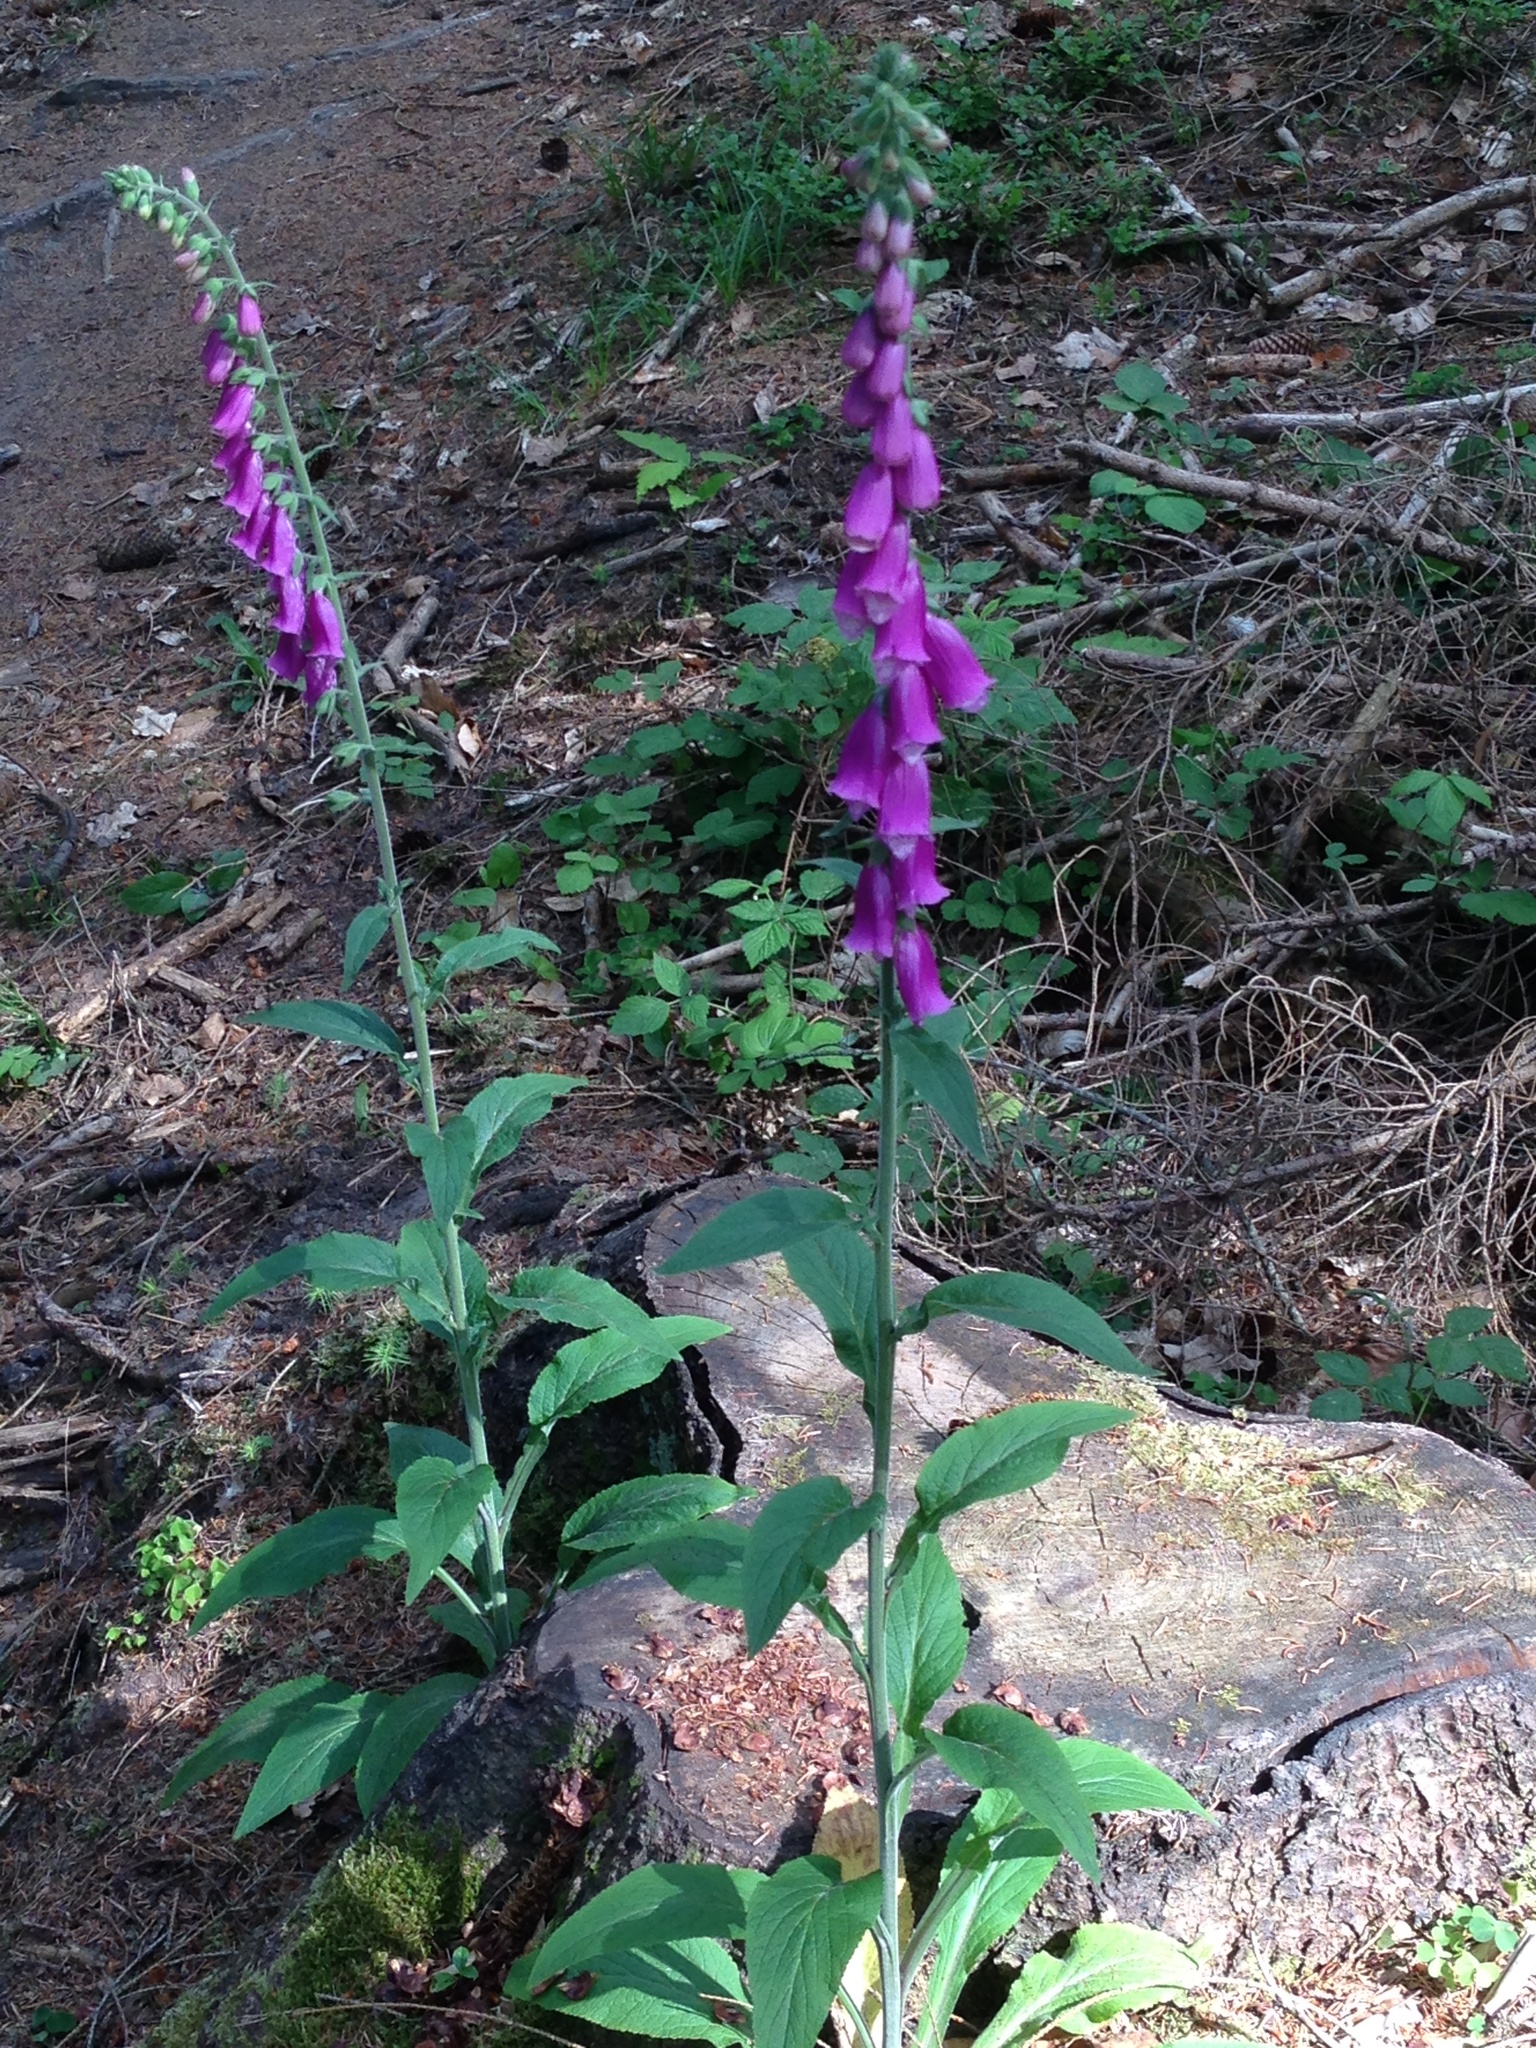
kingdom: Plantae
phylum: Tracheophyta
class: Magnoliopsida
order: Lamiales
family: Plantaginaceae
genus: Digitalis
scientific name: Digitalis purpurea
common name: Foxglove
